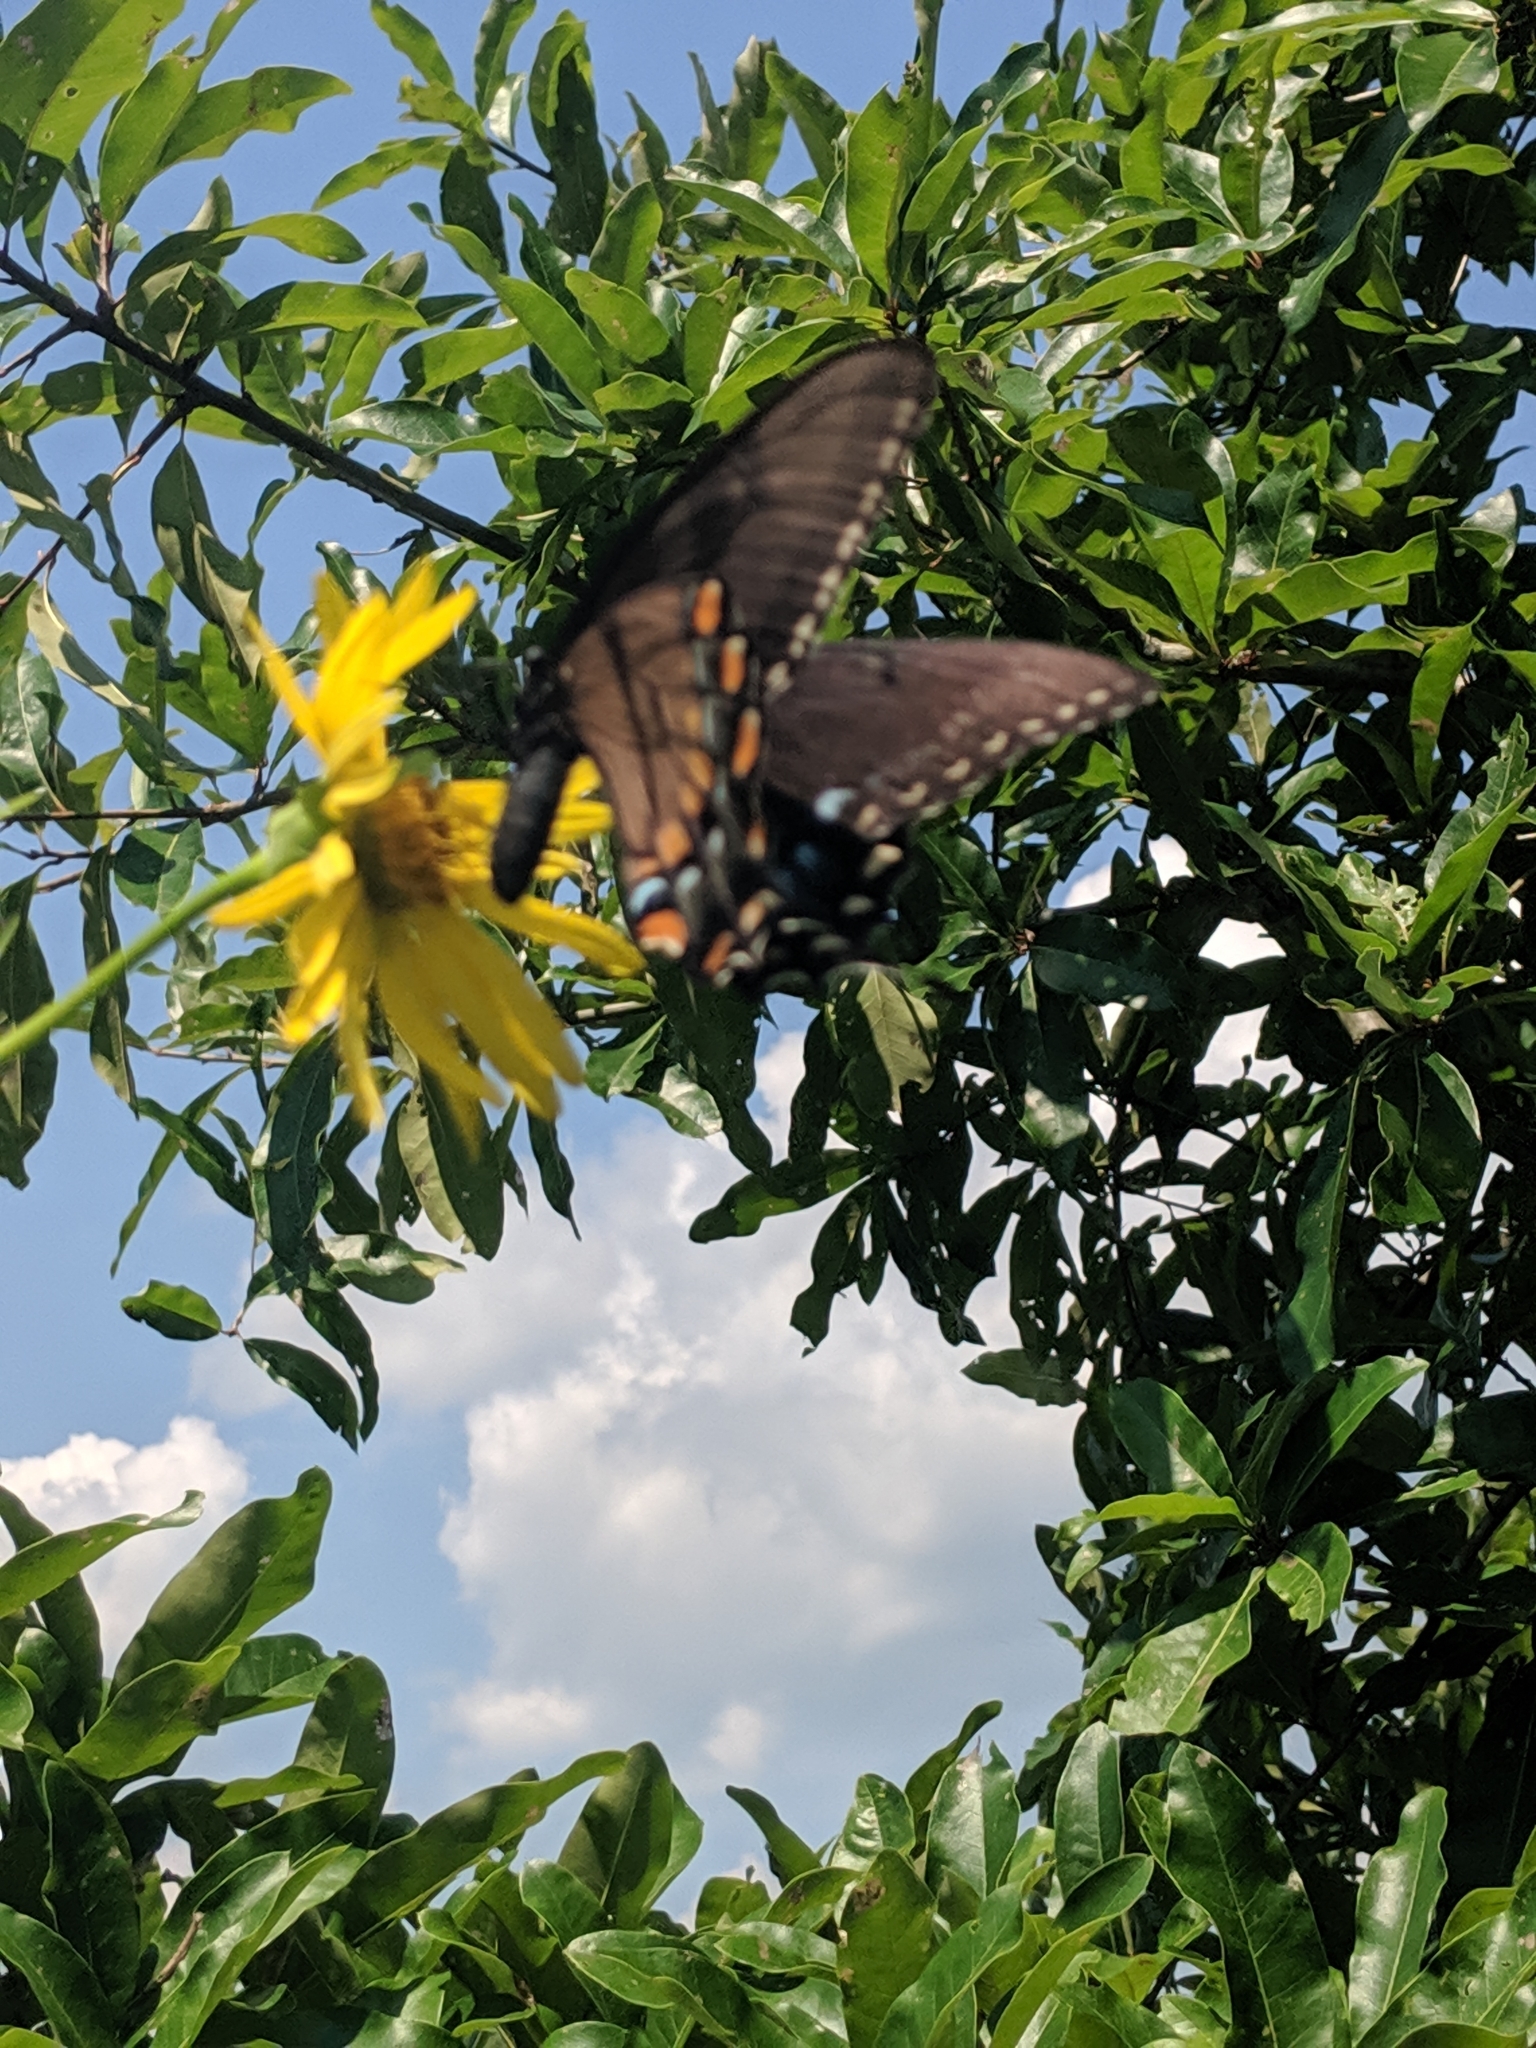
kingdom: Animalia
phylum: Arthropoda
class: Insecta
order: Lepidoptera
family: Papilionidae
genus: Papilio
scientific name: Papilio glaucus
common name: Tiger swallowtail
